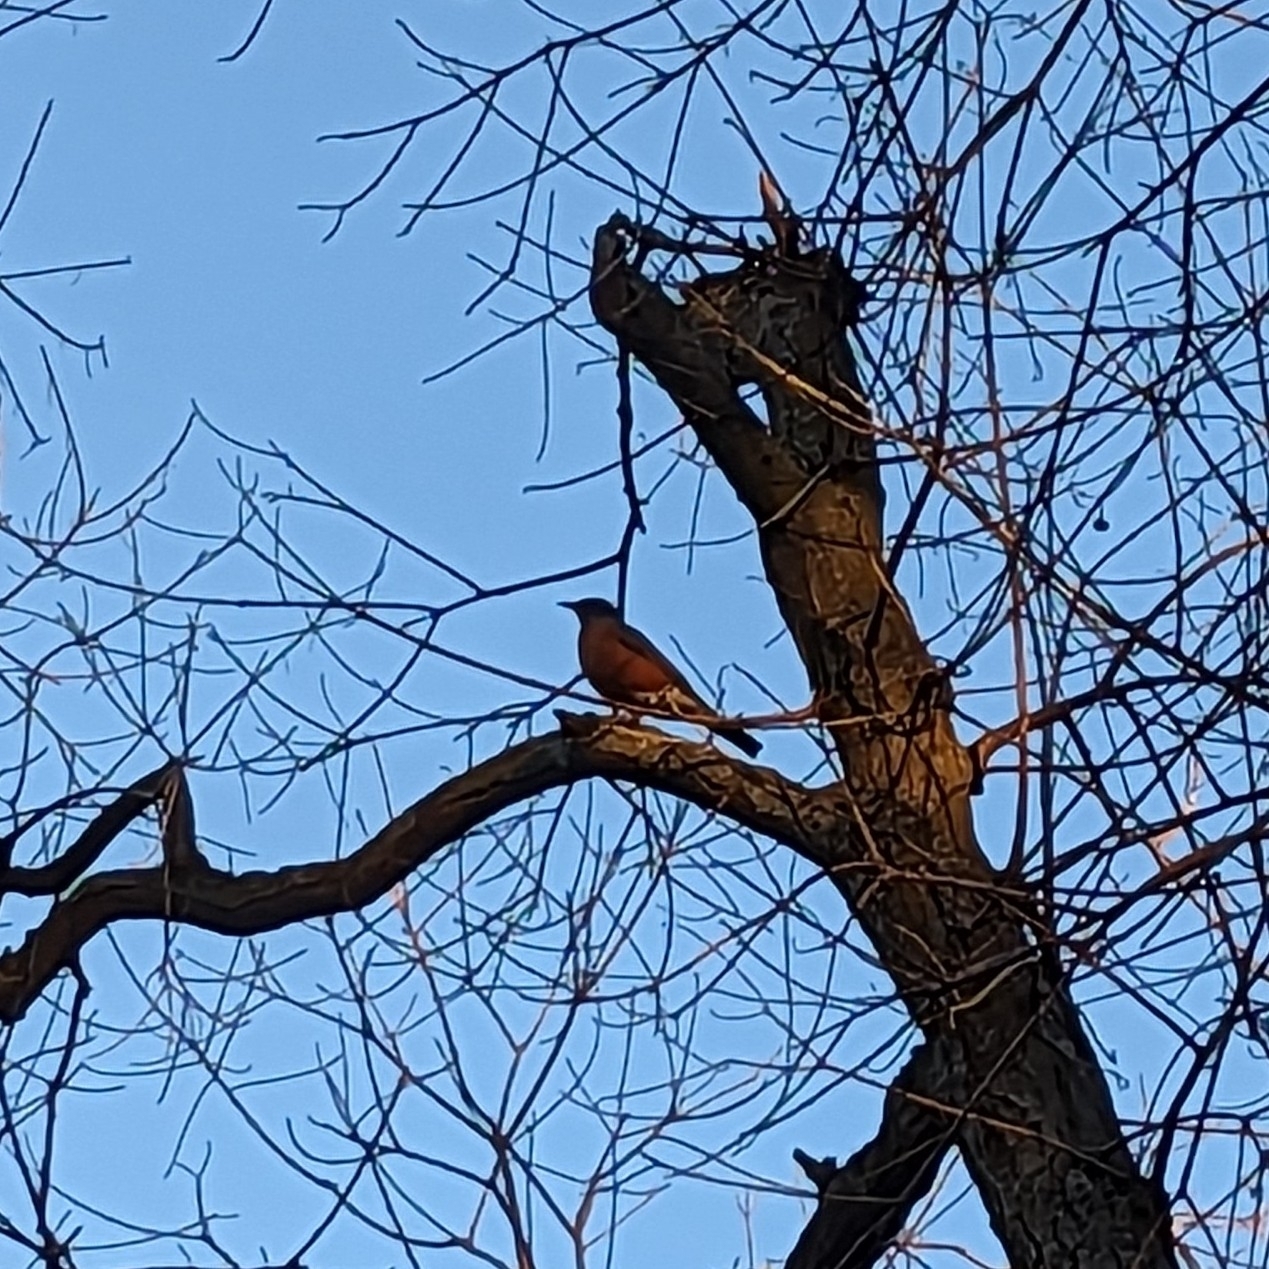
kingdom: Animalia
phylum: Chordata
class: Aves
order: Passeriformes
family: Turdidae
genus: Turdus
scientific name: Turdus migratorius
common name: American robin
